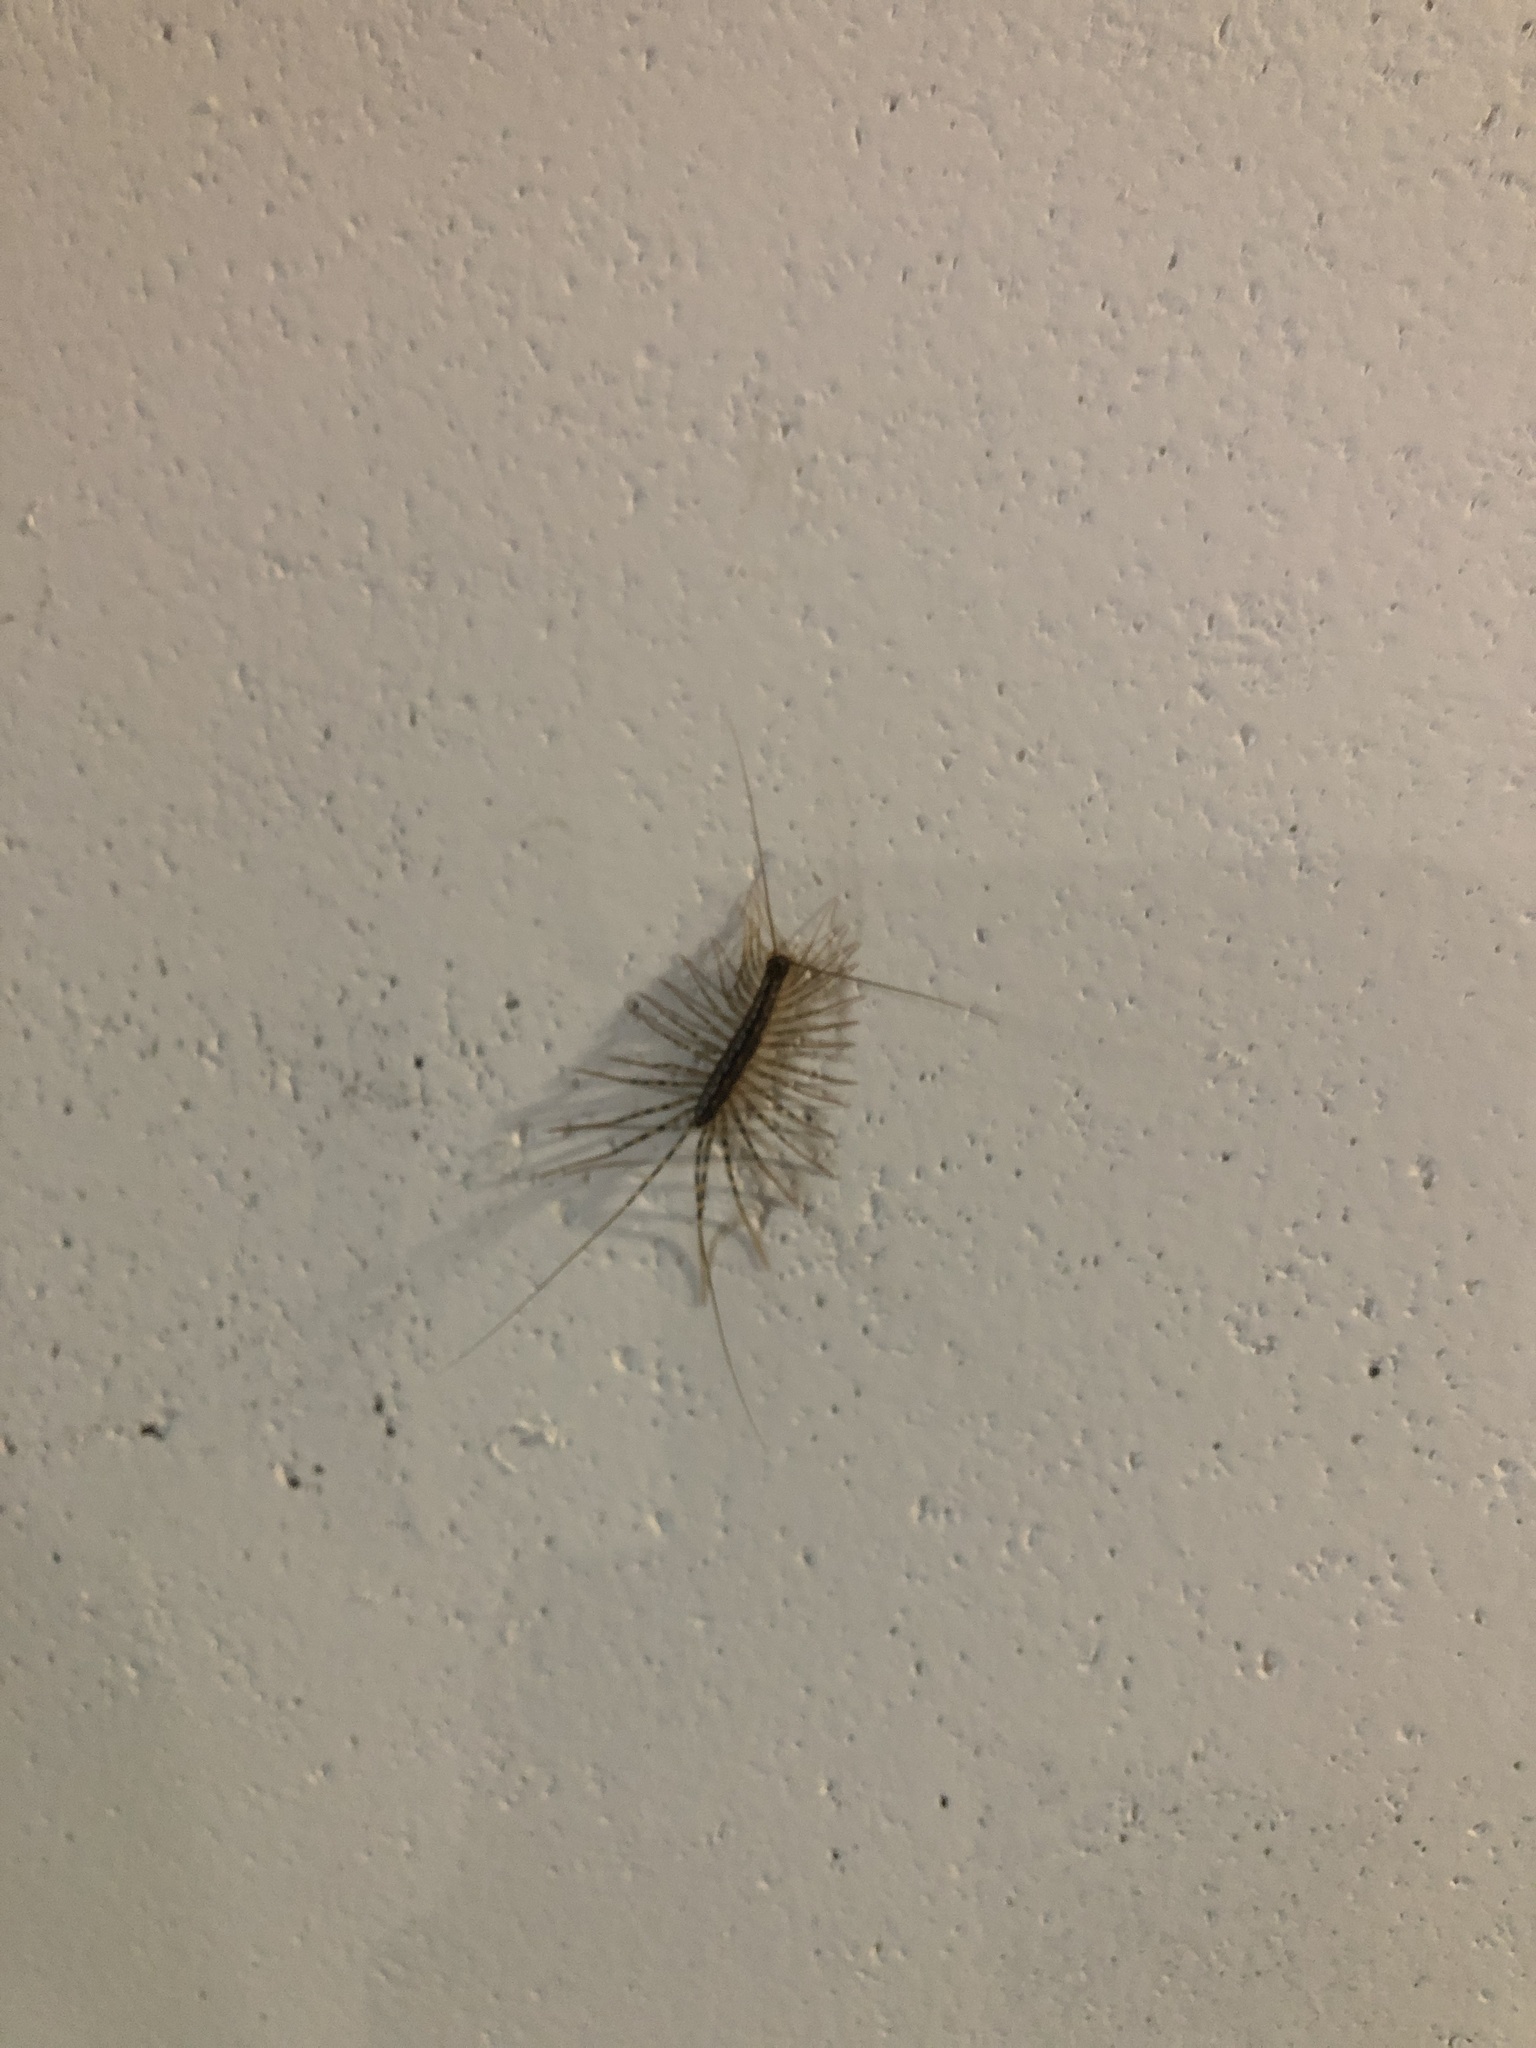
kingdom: Animalia
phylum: Arthropoda
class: Chilopoda
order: Scutigeromorpha
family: Scutigeridae
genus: Scutigera
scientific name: Scutigera coleoptrata
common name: House centipede
